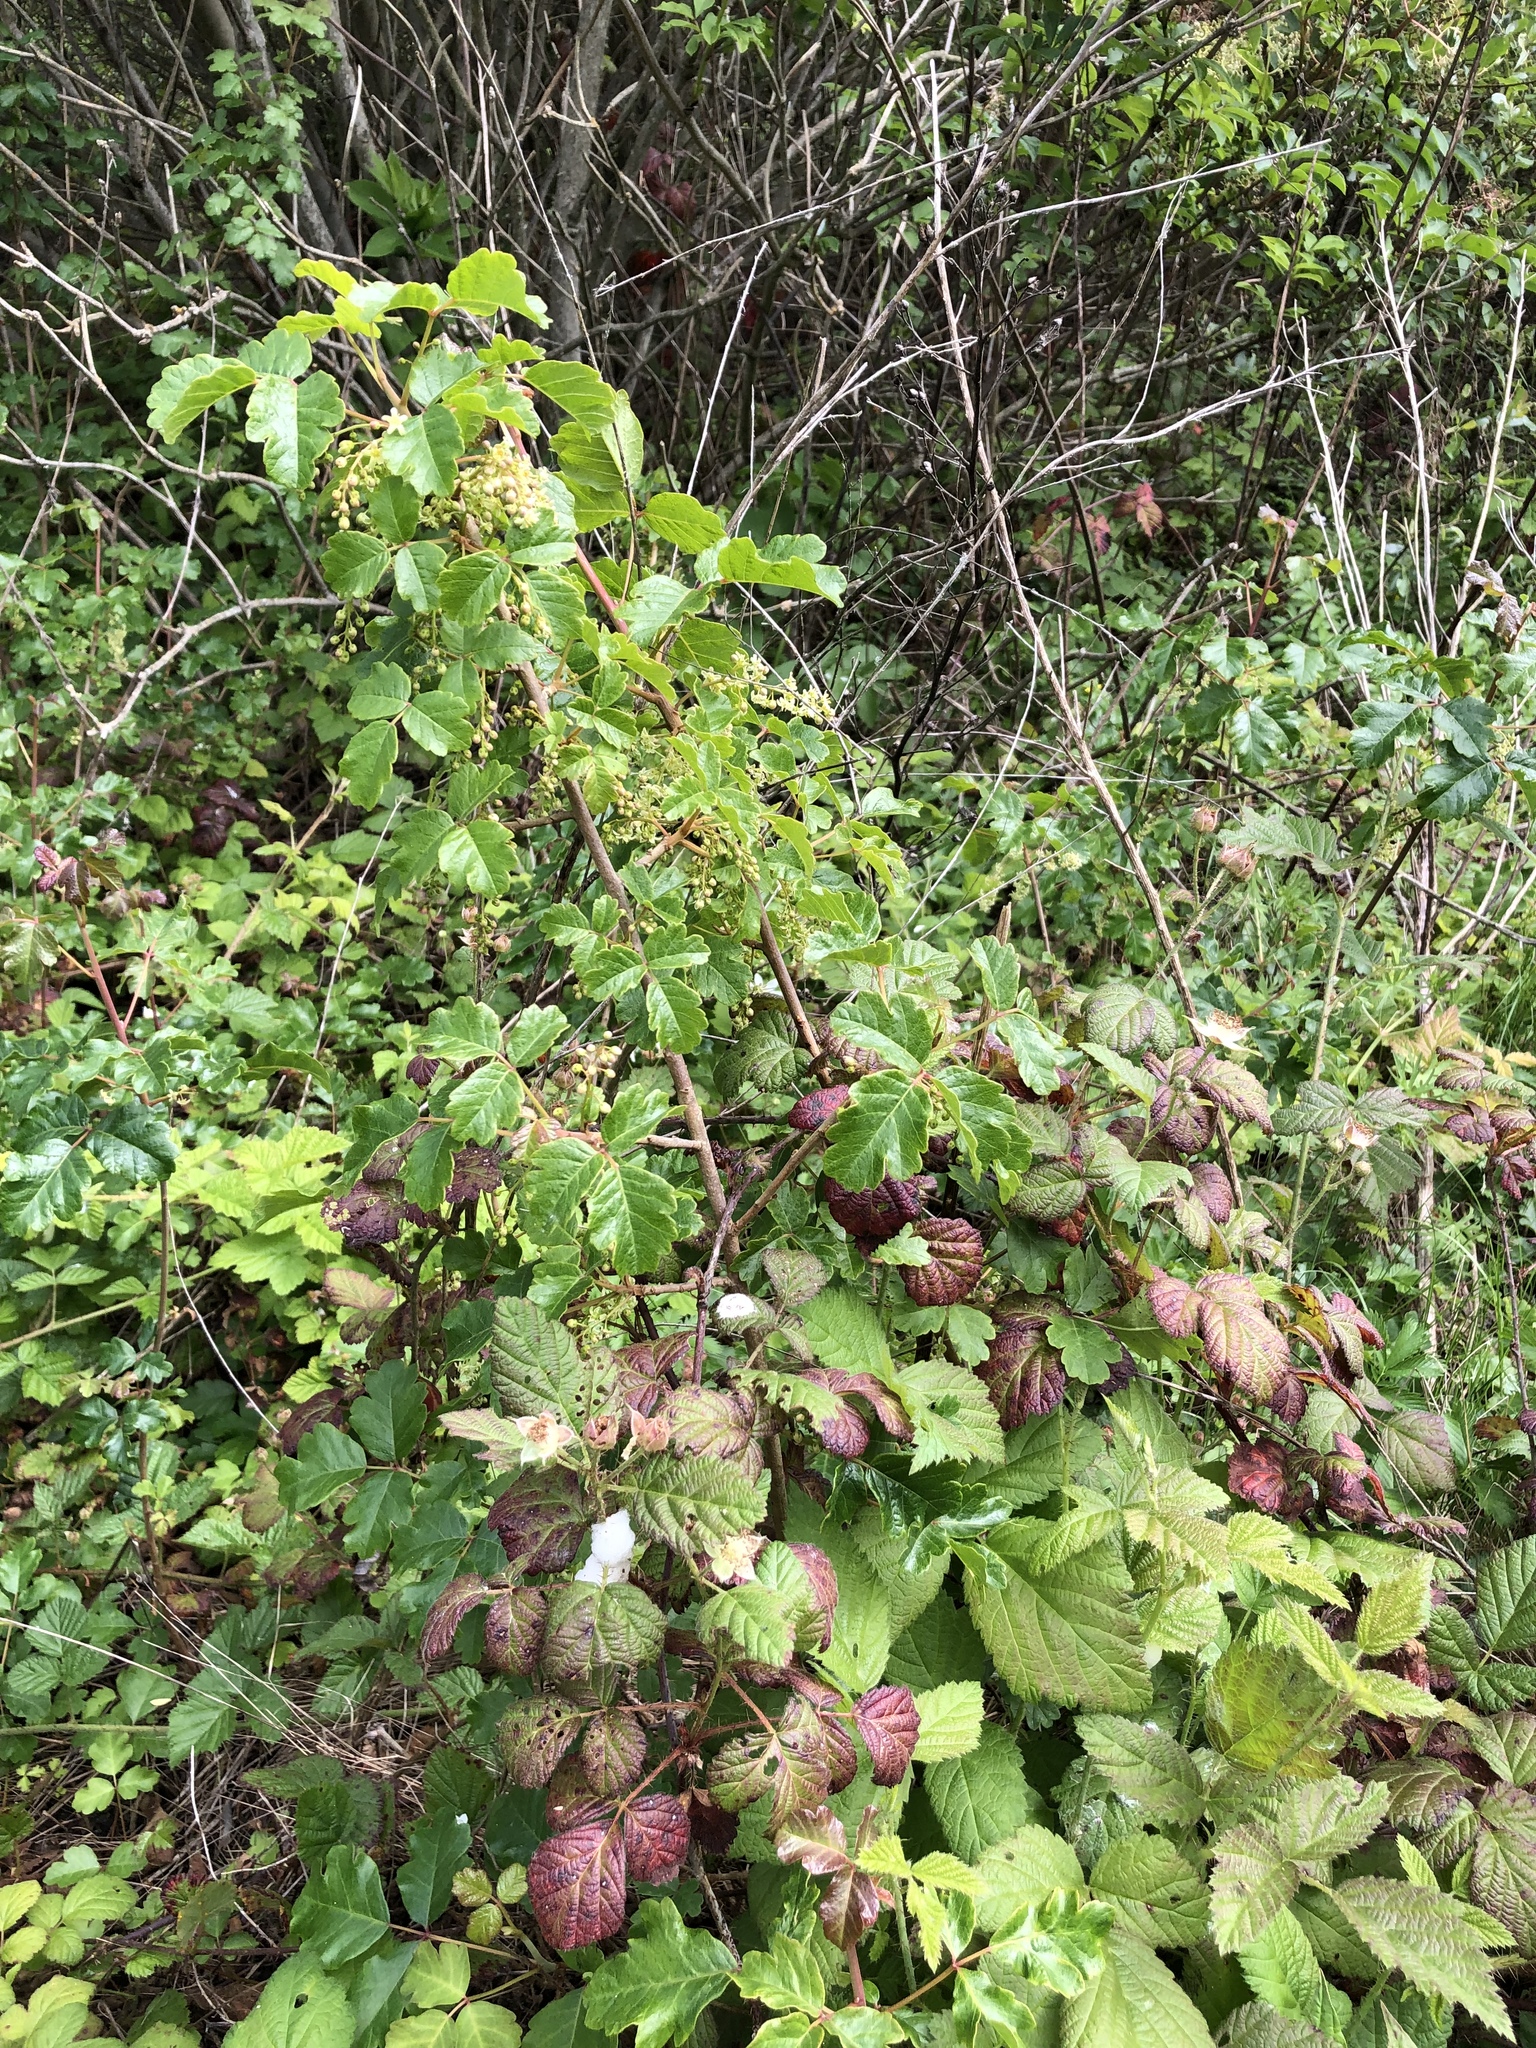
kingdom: Plantae
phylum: Tracheophyta
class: Magnoliopsida
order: Sapindales
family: Anacardiaceae
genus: Toxicodendron
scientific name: Toxicodendron diversilobum
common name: Pacific poison-oak
